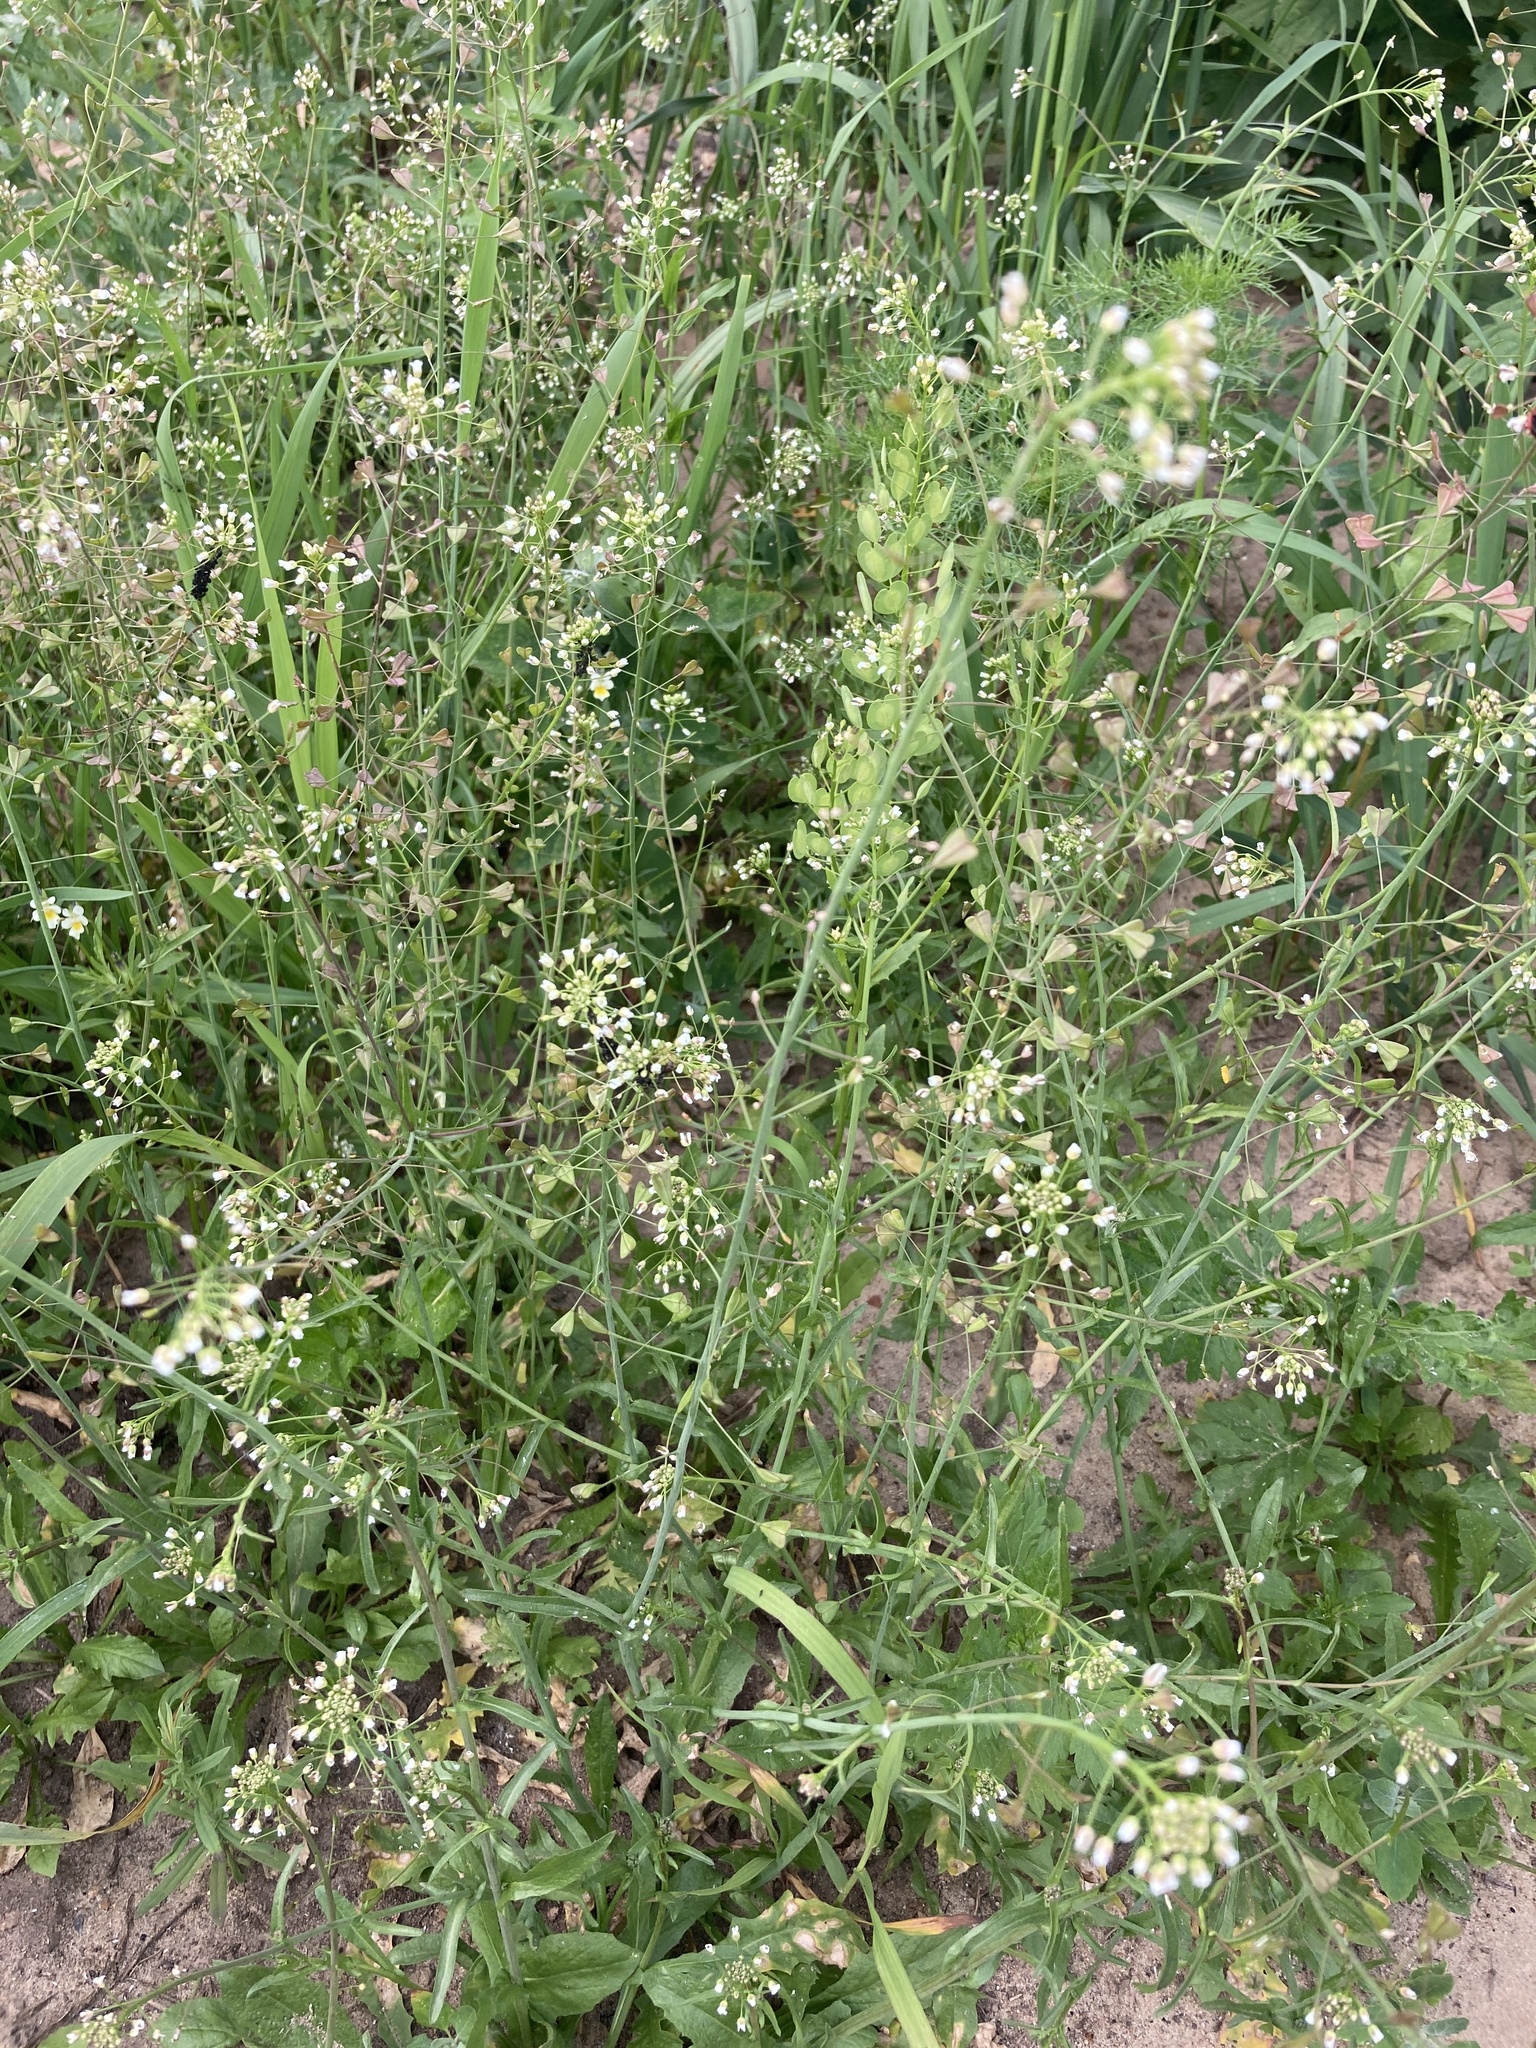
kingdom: Plantae
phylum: Tracheophyta
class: Magnoliopsida
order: Brassicales
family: Brassicaceae
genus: Capsella
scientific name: Capsella bursa-pastoris
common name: Shepherd's purse
